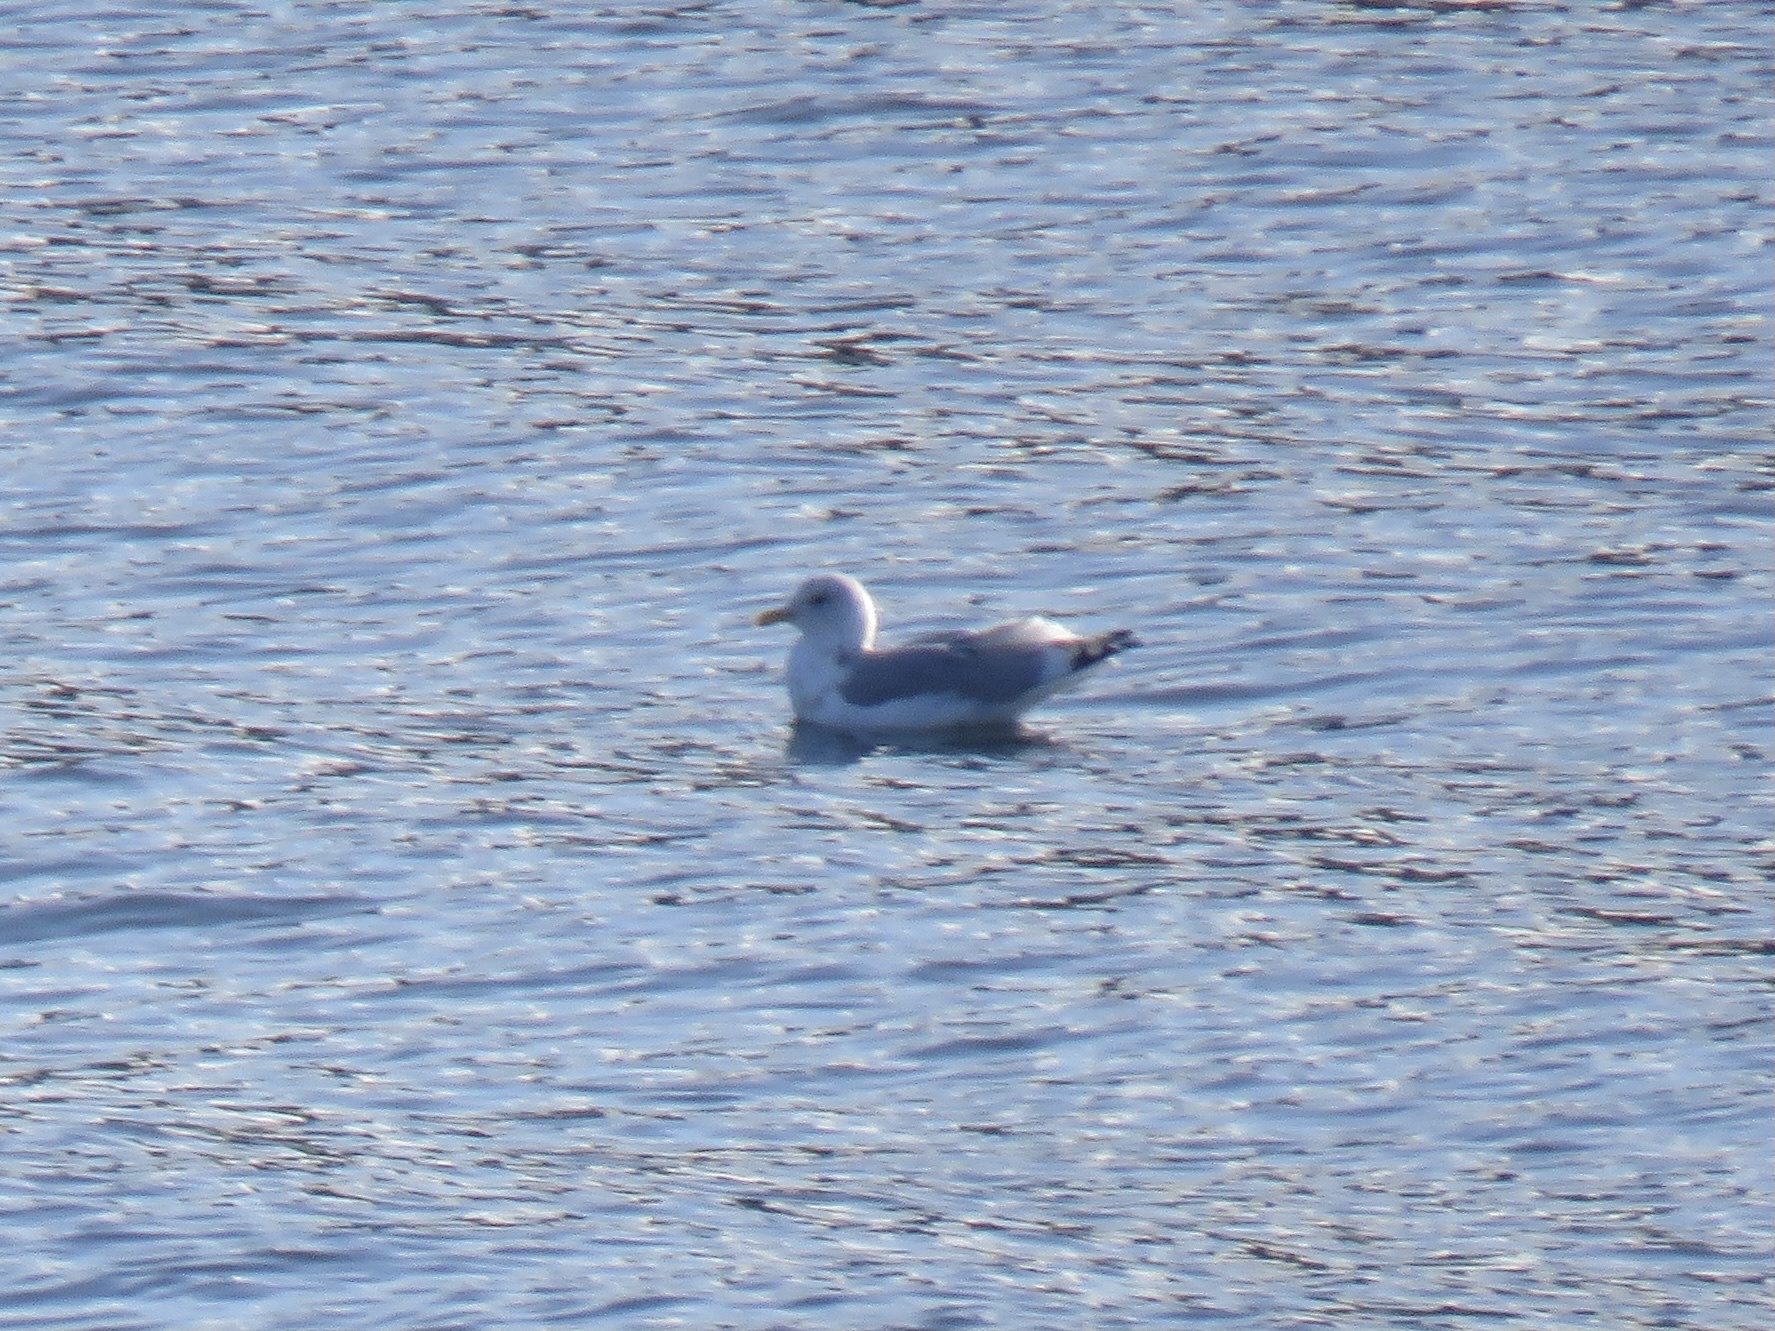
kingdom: Animalia
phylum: Chordata
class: Aves
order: Charadriiformes
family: Laridae
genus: Larus
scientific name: Larus brachyrhynchus
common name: Short-billed gull
